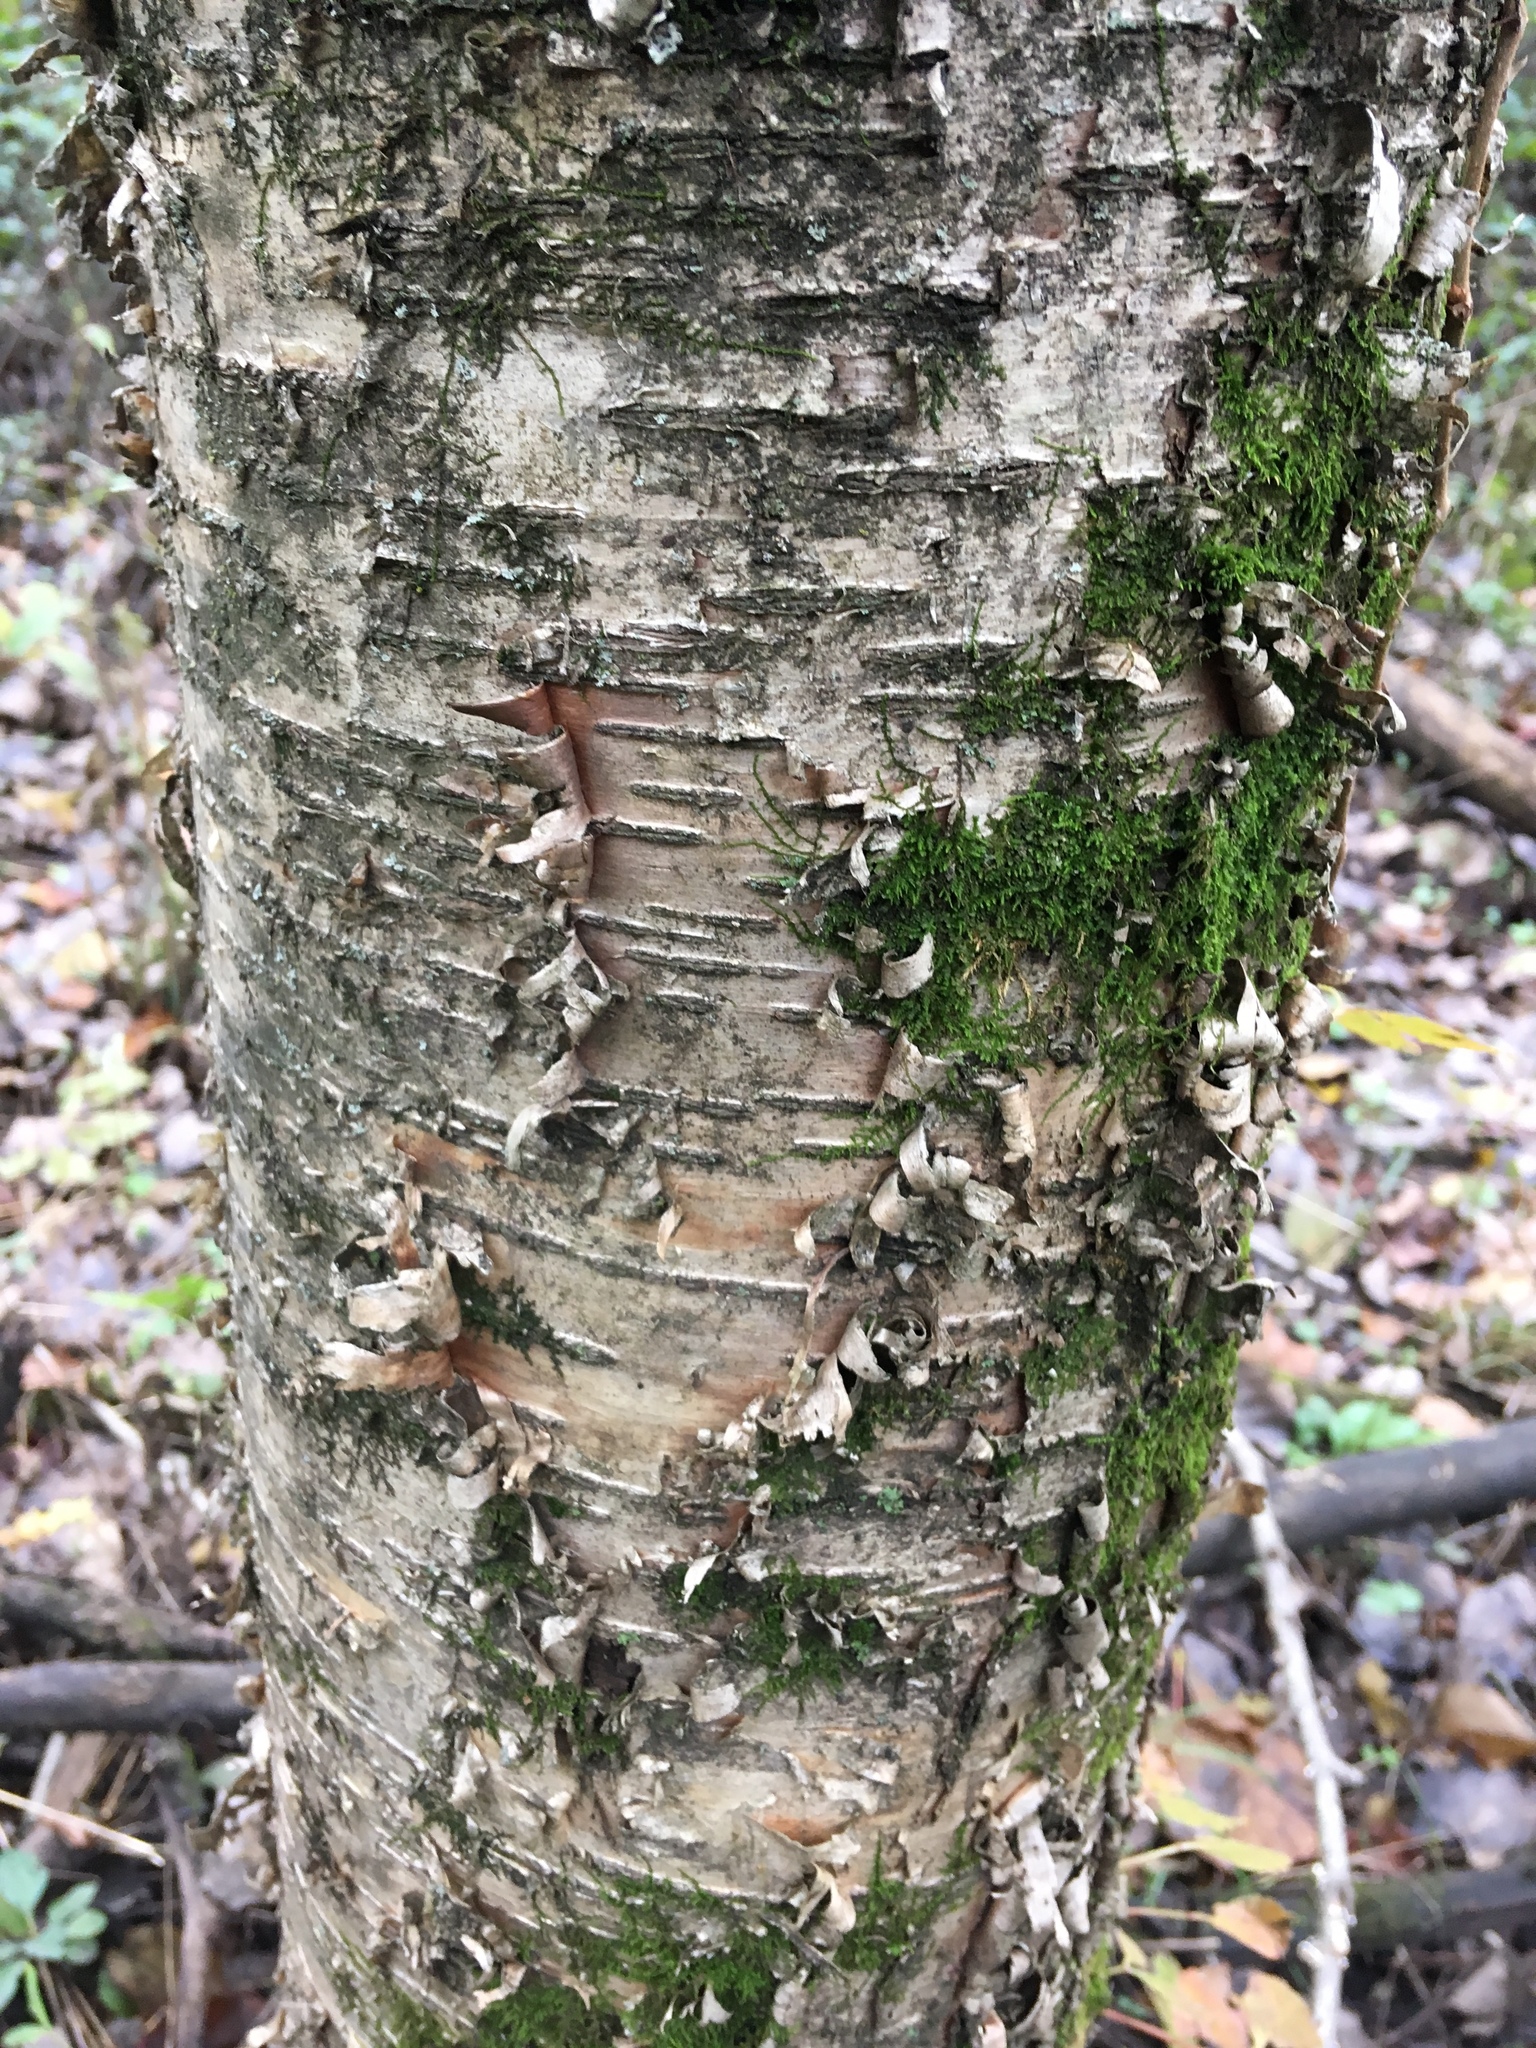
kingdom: Plantae
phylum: Tracheophyta
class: Magnoliopsida
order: Fagales
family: Betulaceae
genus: Betula
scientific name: Betula alleghaniensis
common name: Yellow birch
